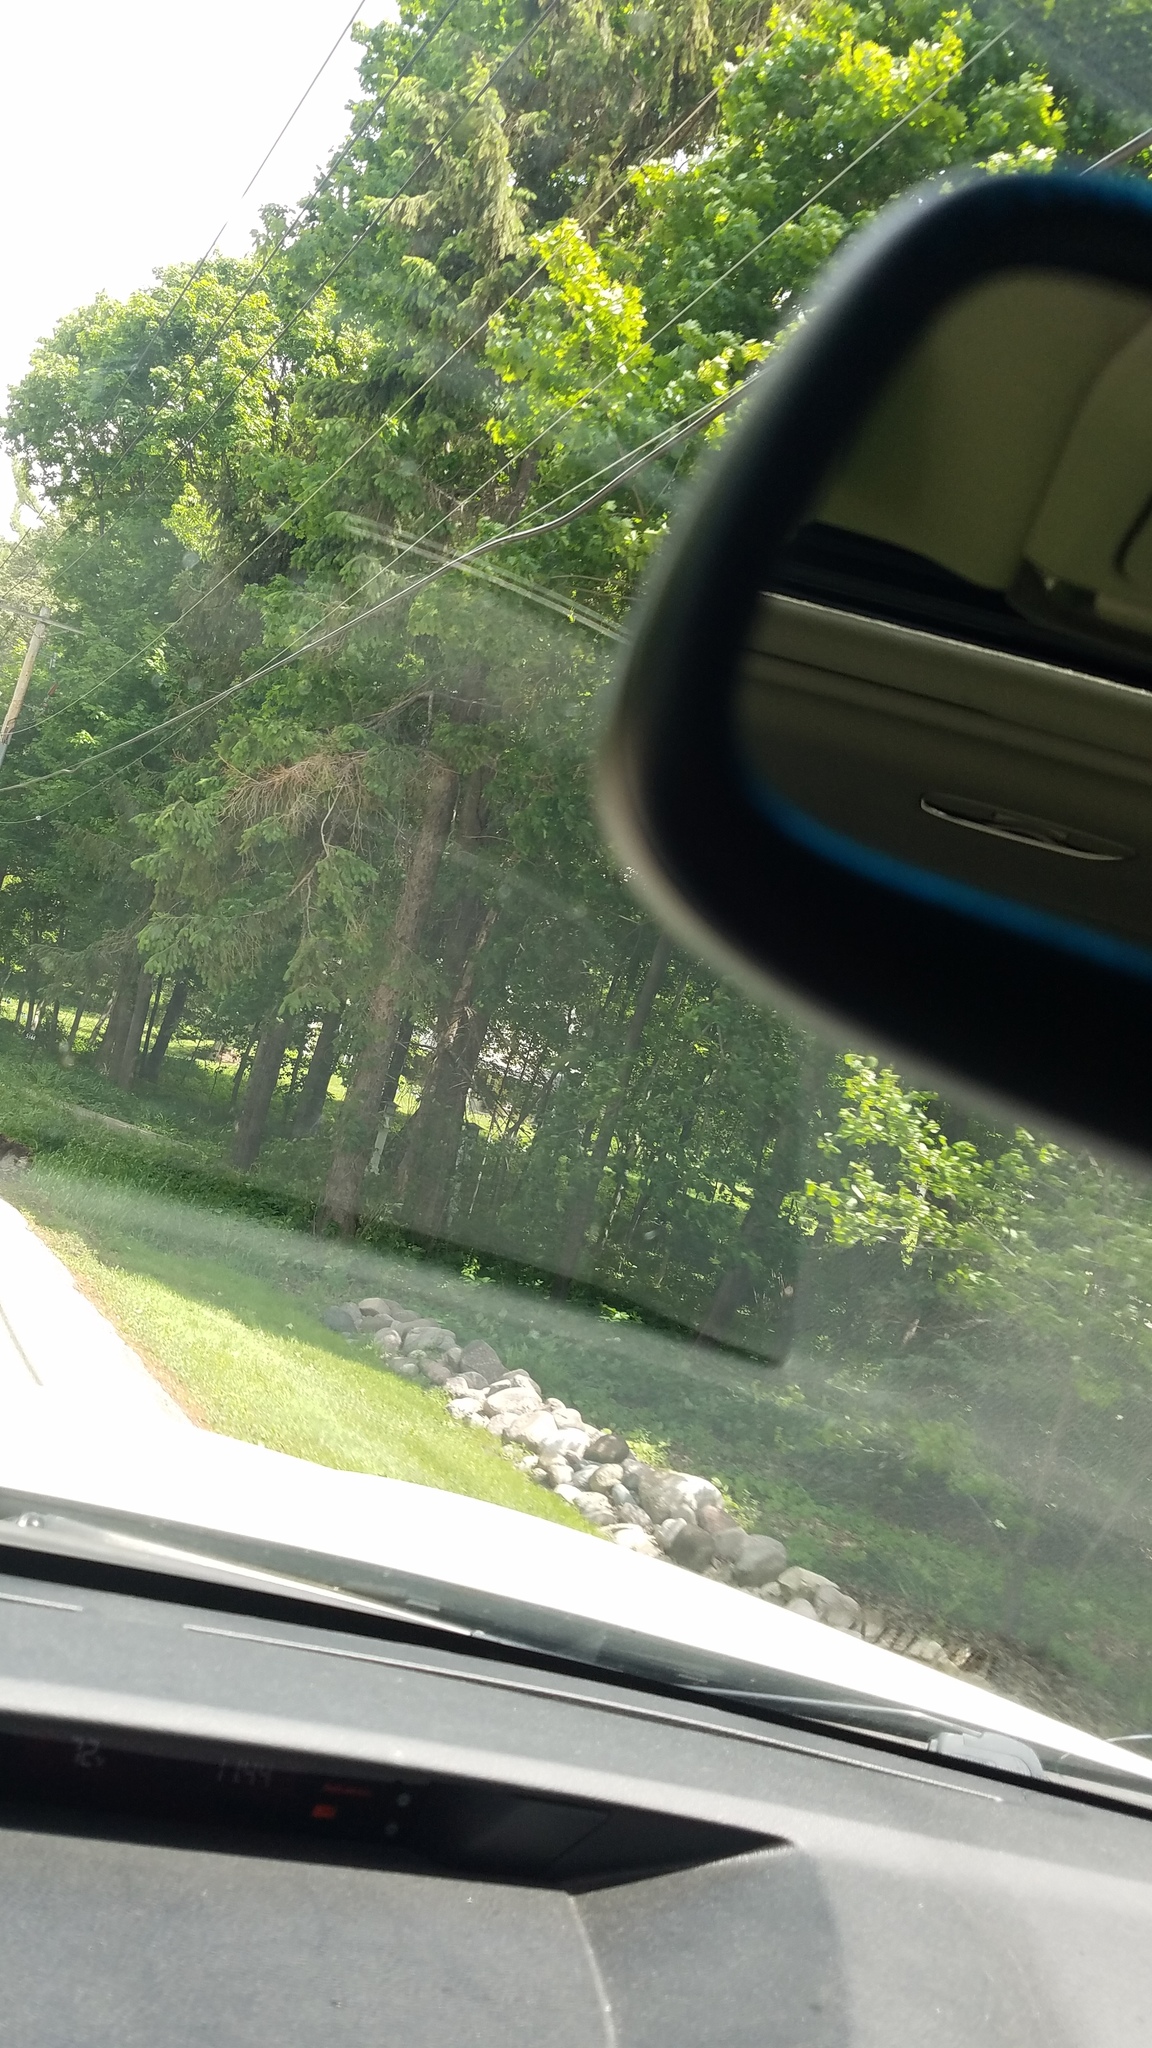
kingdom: Plantae
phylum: Tracheophyta
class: Pinopsida
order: Pinales
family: Pinaceae
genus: Picea
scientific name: Picea
